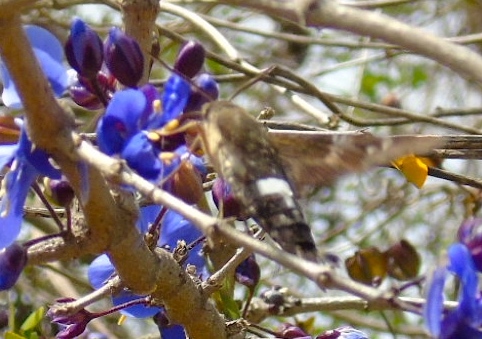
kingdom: Animalia
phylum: Arthropoda
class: Insecta
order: Lepidoptera
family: Sphingidae
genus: Aellopos
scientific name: Aellopos
